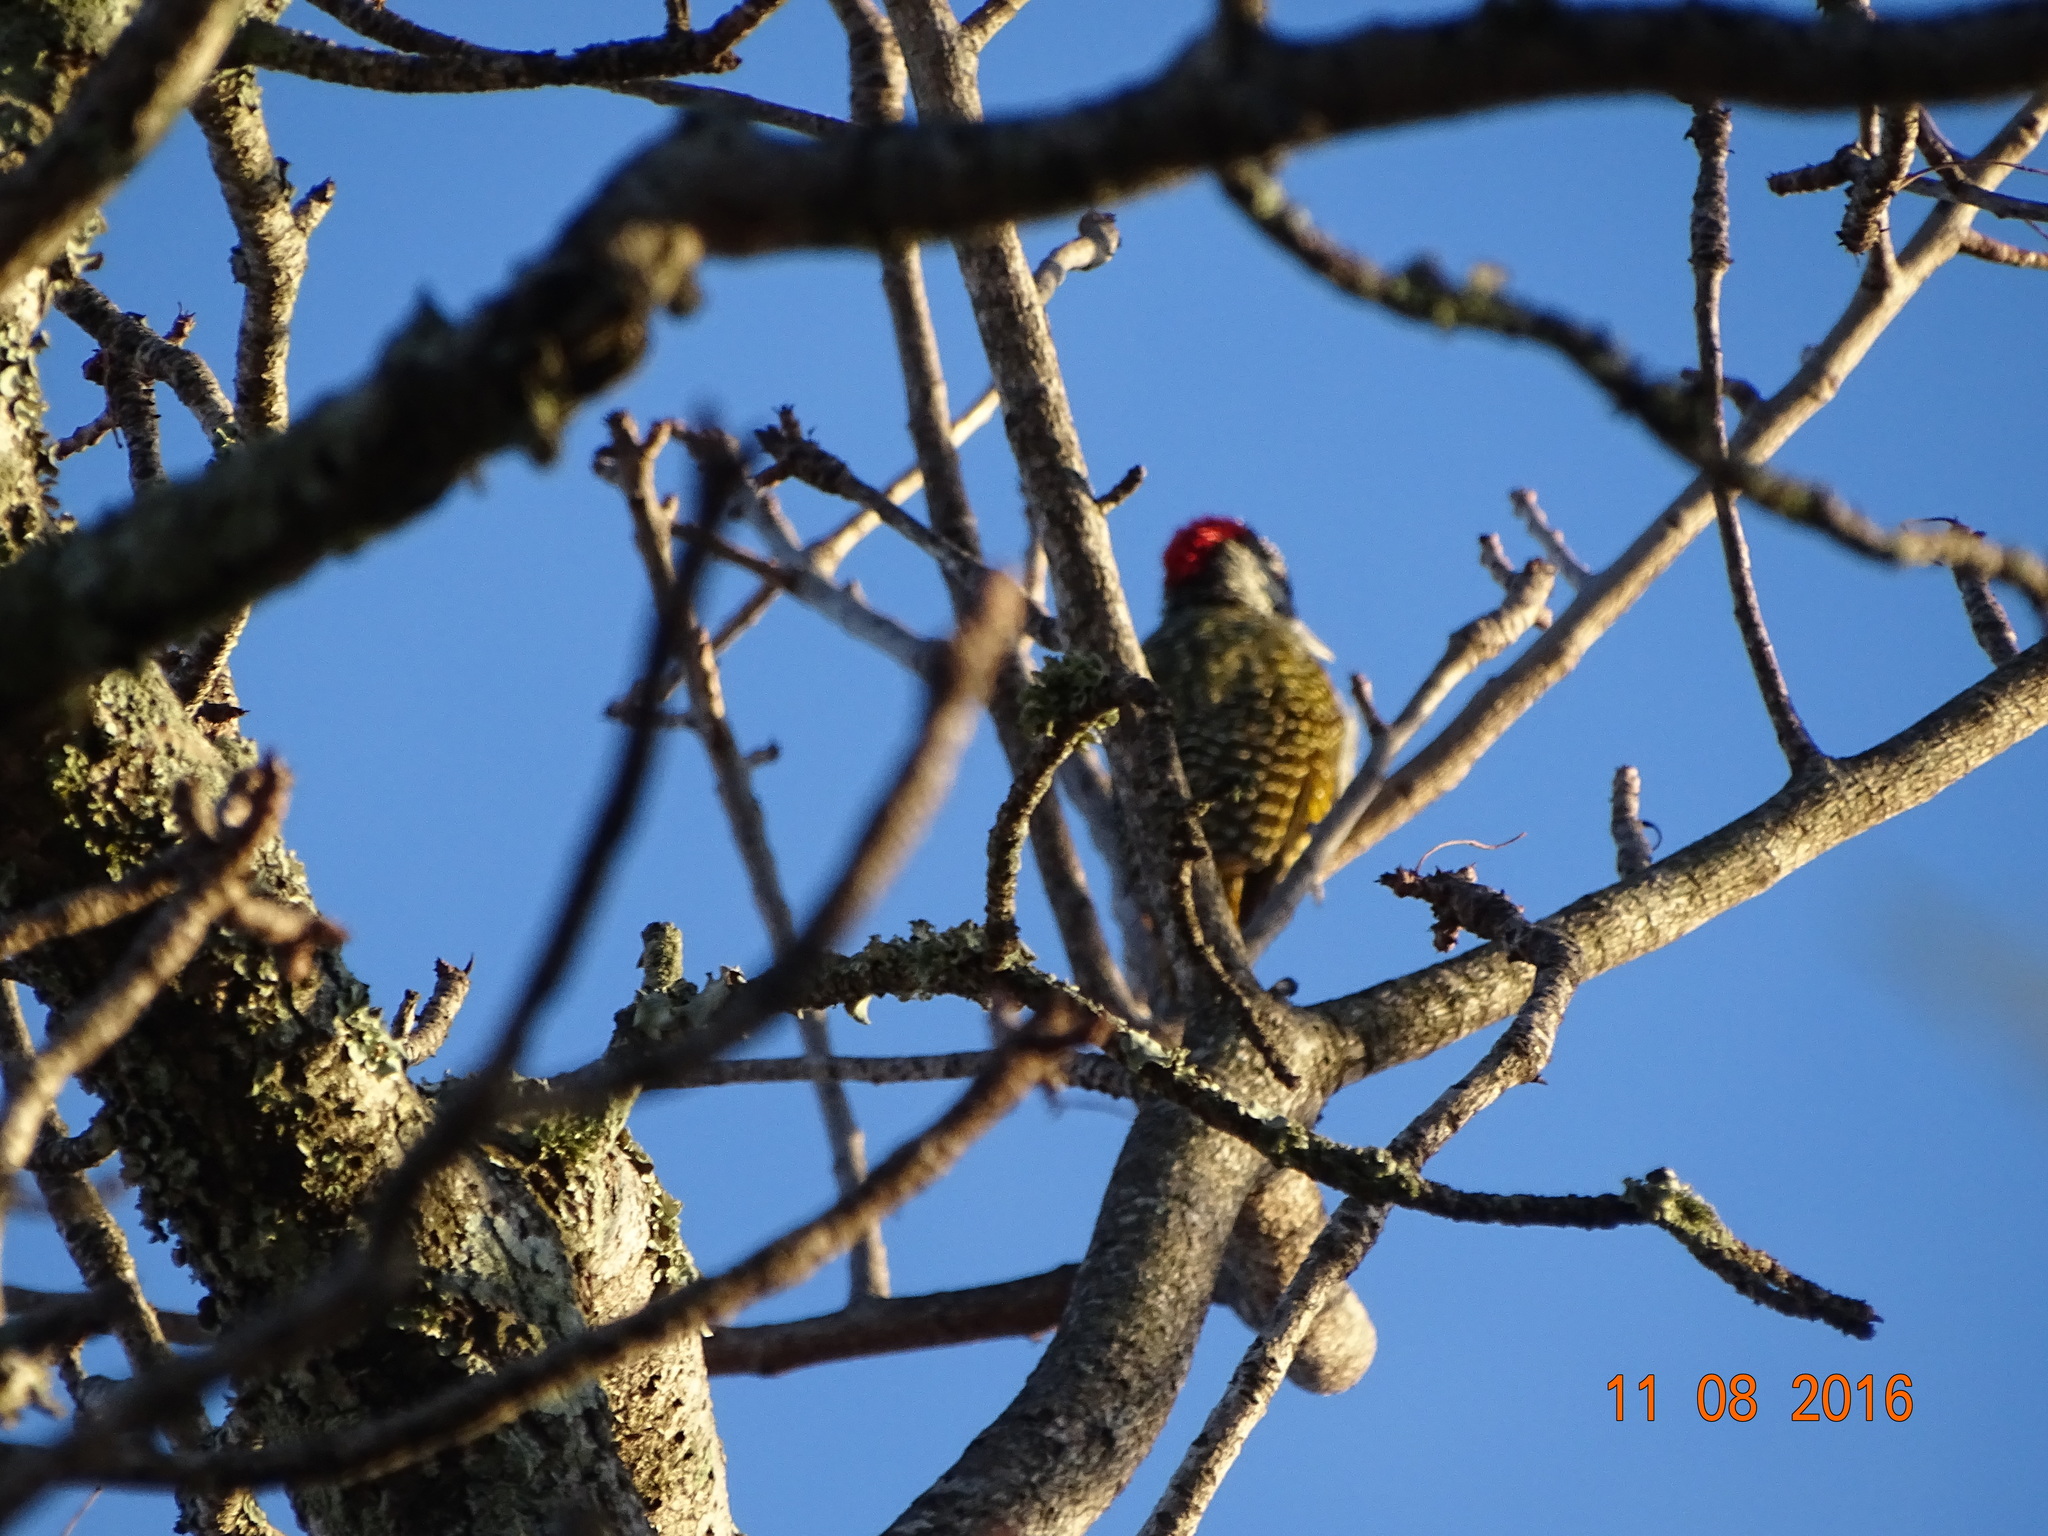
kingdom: Animalia
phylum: Chordata
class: Aves
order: Piciformes
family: Picidae
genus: Campethera
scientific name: Campethera abingoni
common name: Golden-tailed woodpecker
